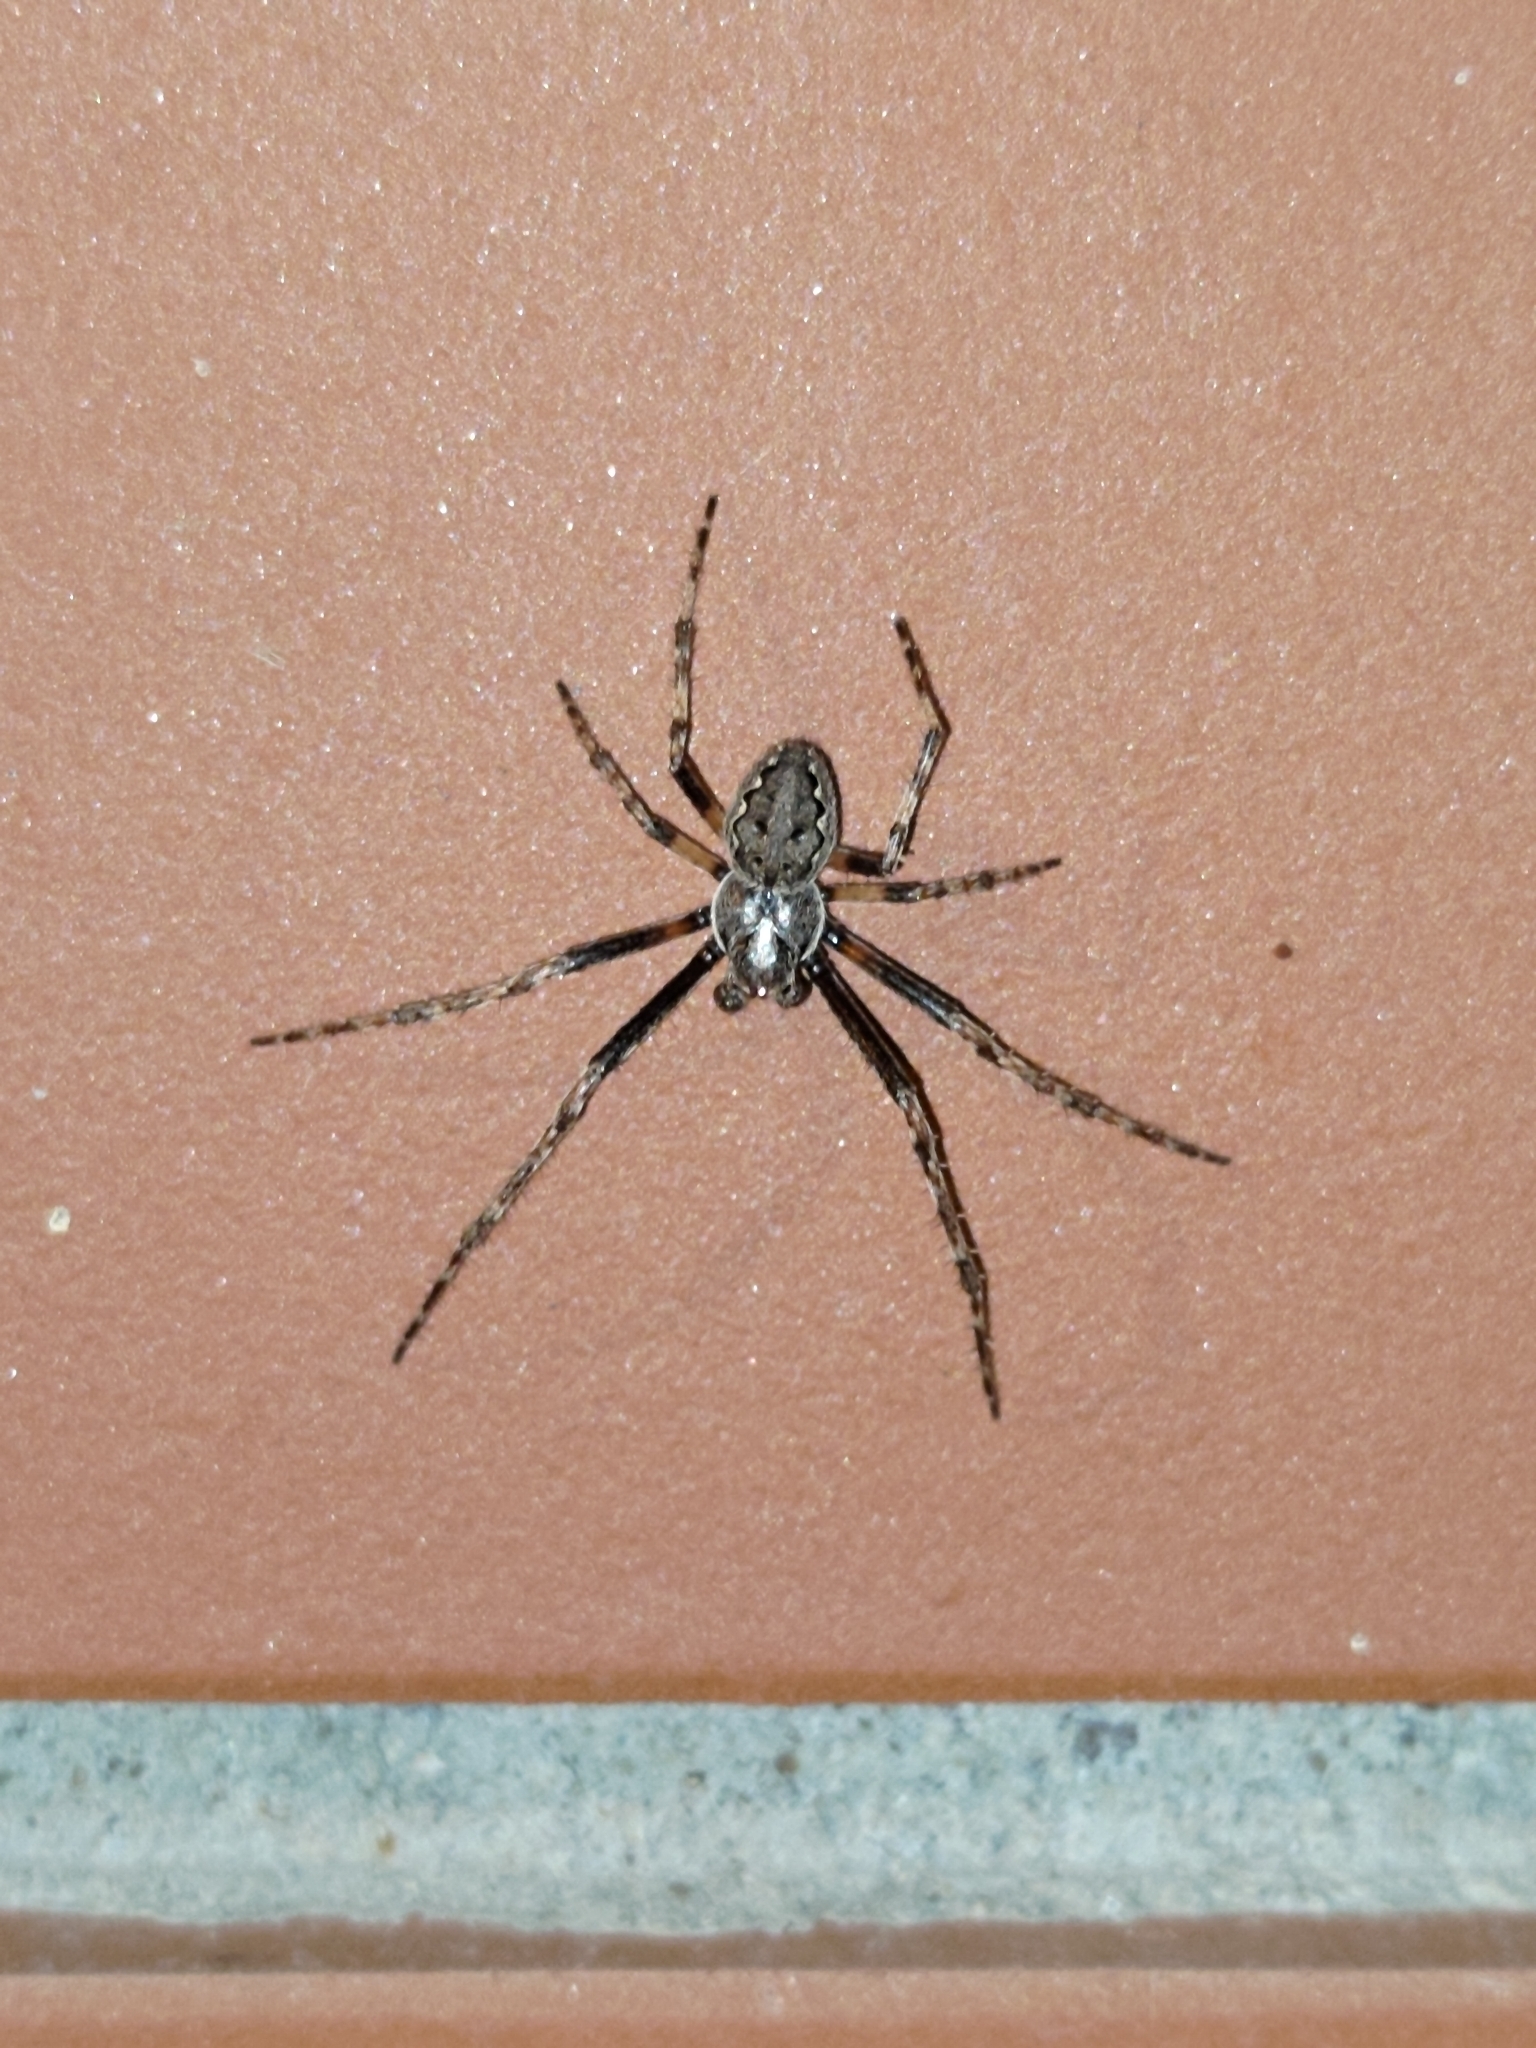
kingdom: Animalia
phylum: Arthropoda
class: Arachnida
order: Araneae
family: Araneidae
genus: Nuctenea
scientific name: Nuctenea umbratica
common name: Toad spider
